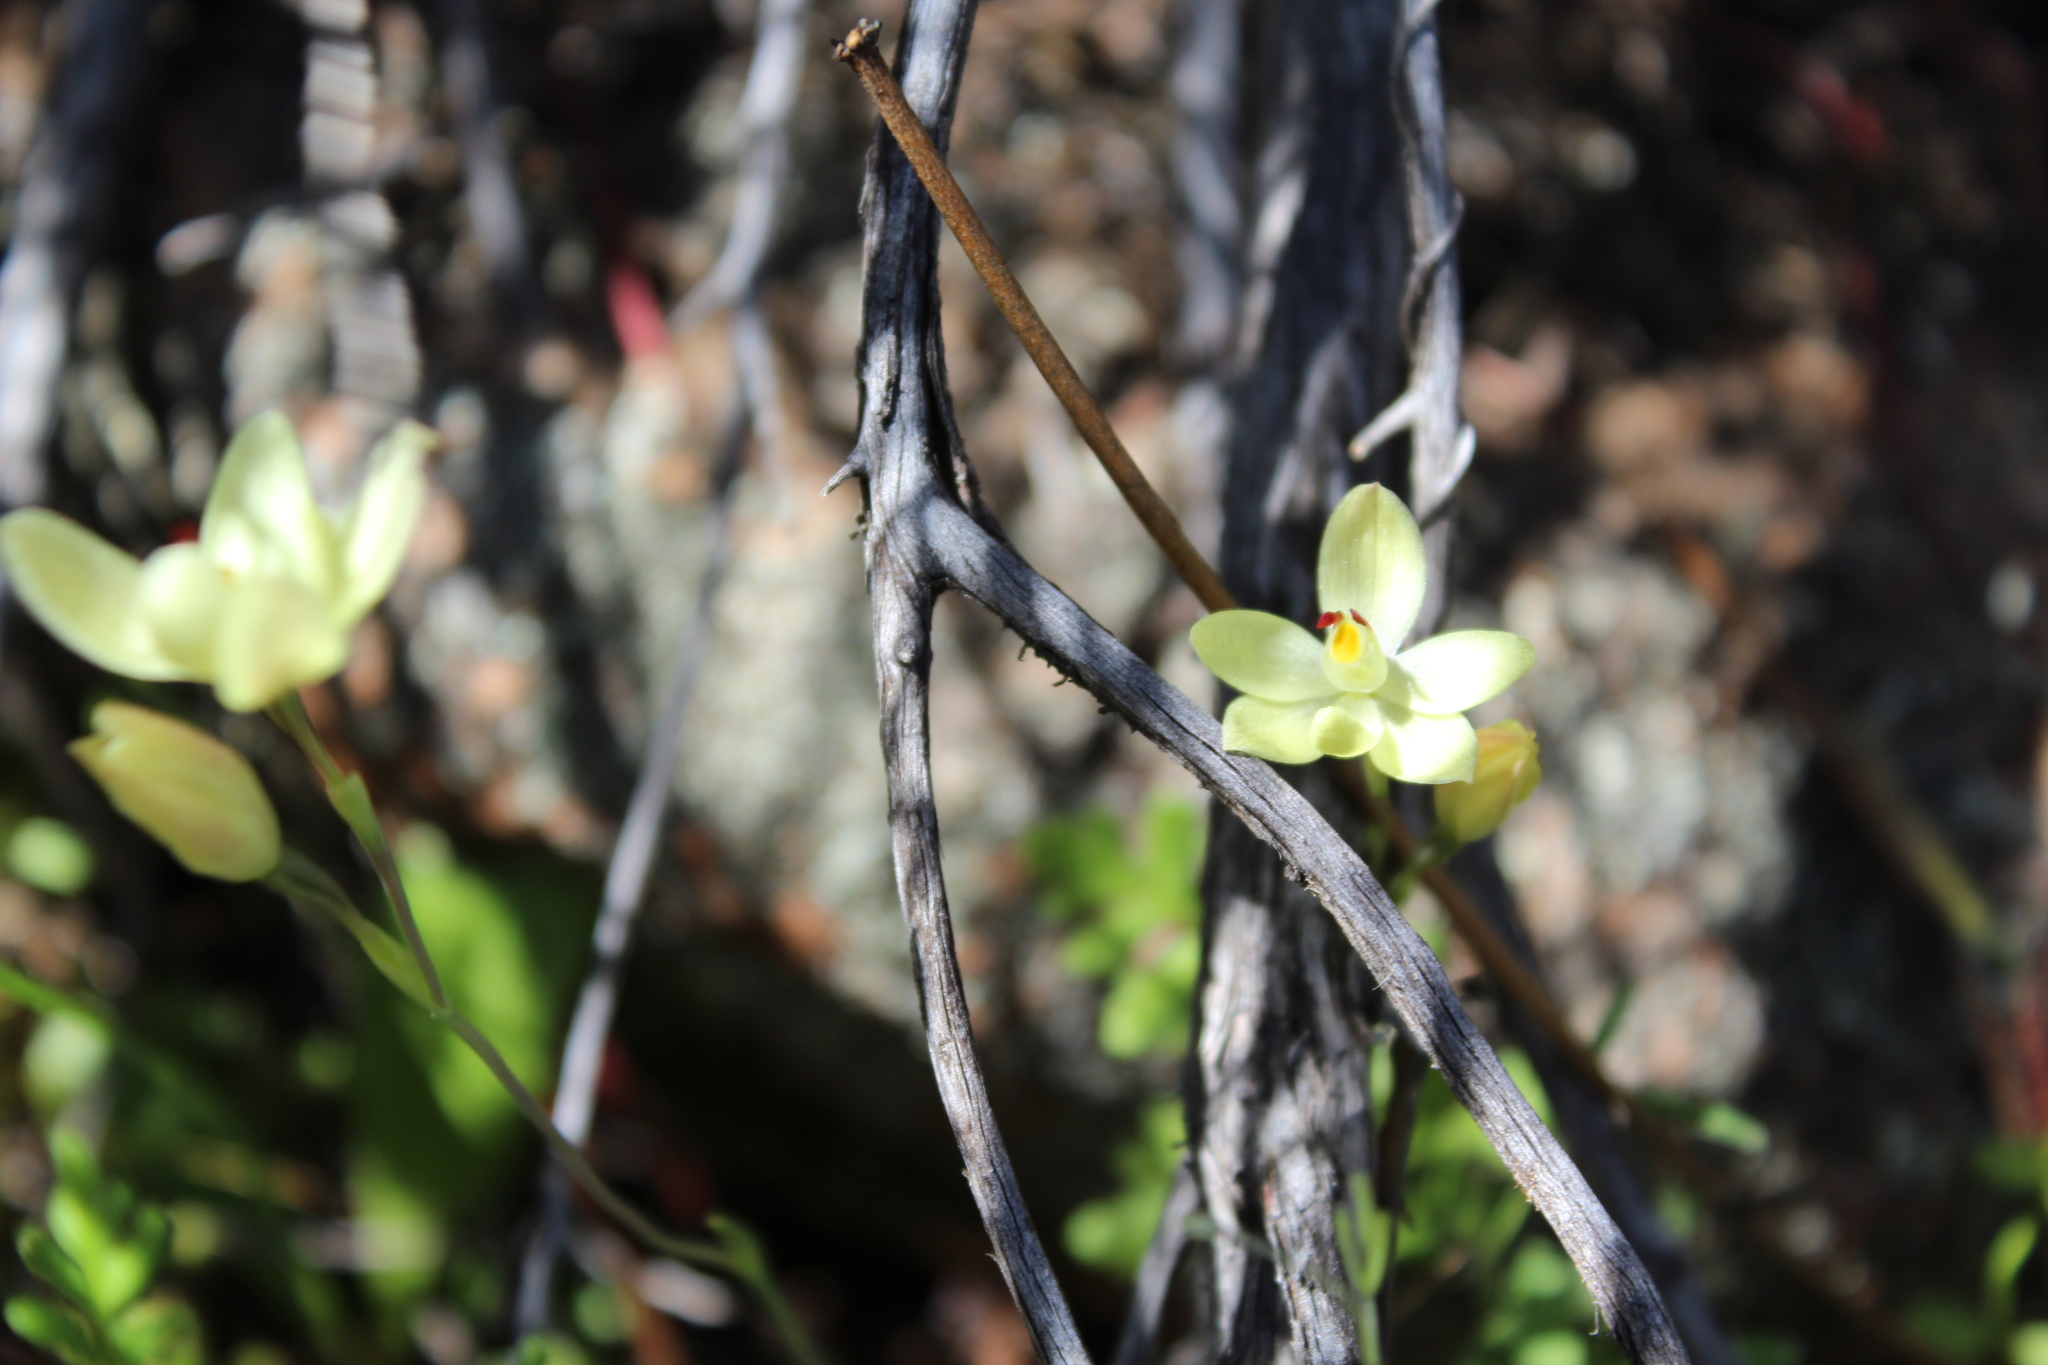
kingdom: Plantae
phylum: Tracheophyta
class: Liliopsida
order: Asparagales
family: Orchidaceae
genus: Thelymitra
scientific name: Thelymitra antennifera
